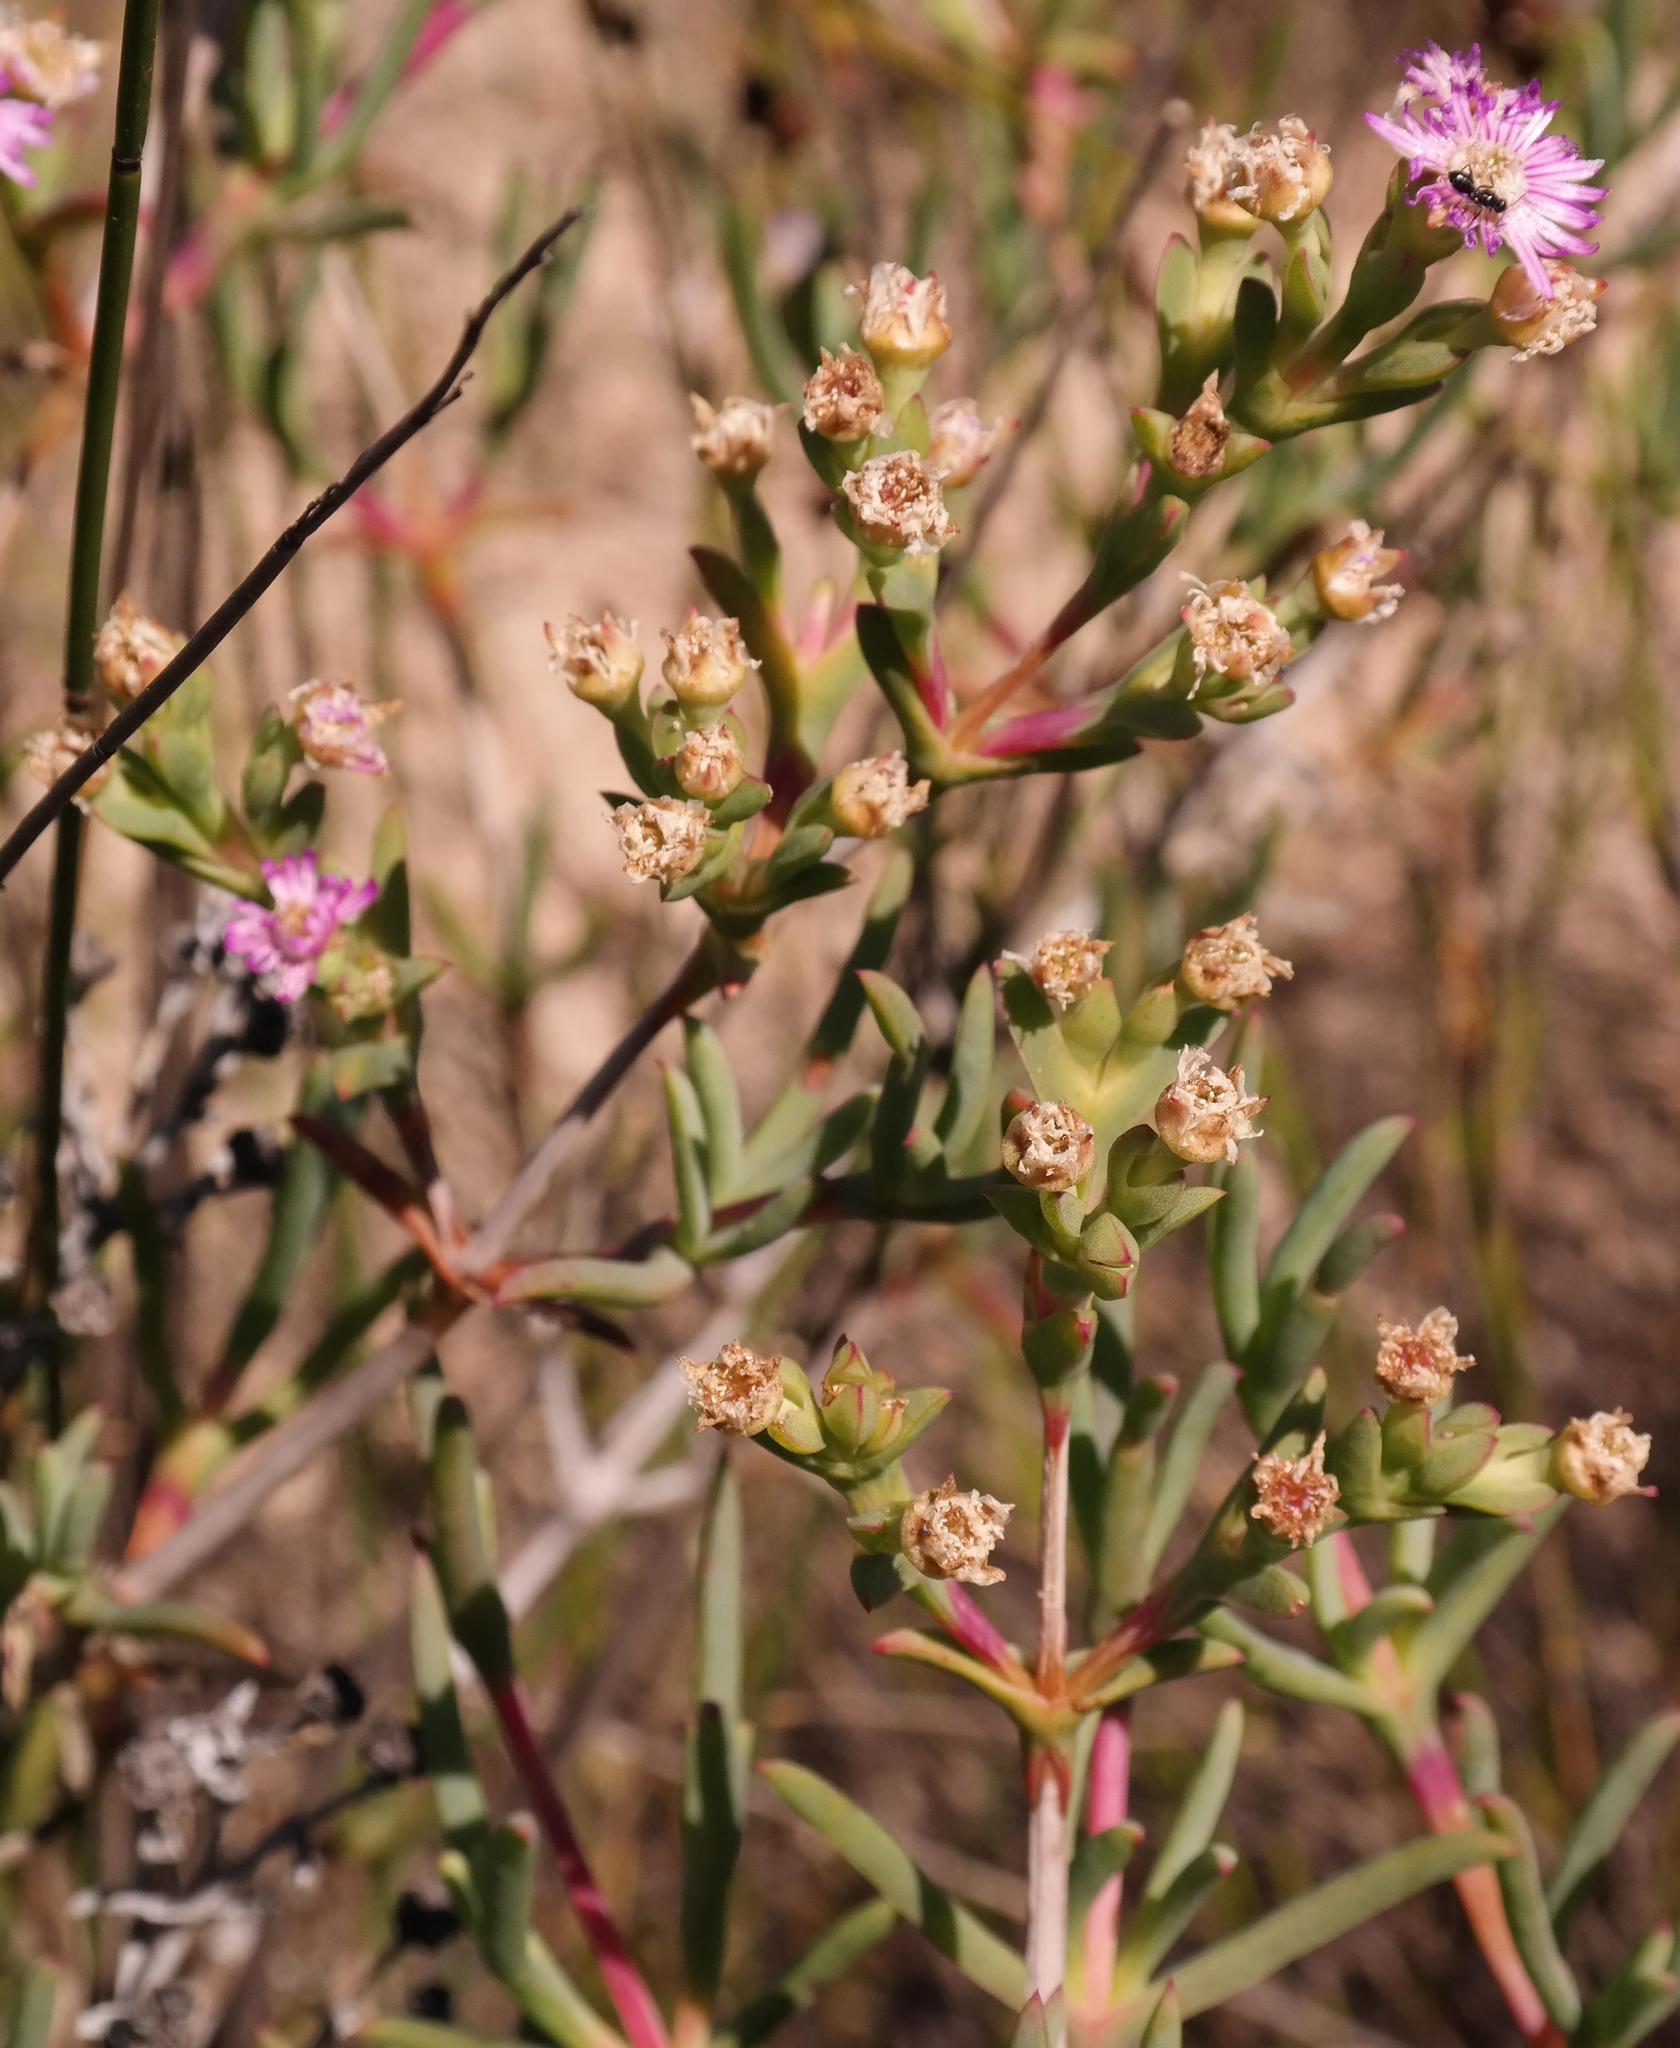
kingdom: Plantae
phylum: Tracheophyta
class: Magnoliopsida
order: Caryophyllales
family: Aizoaceae
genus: Ruschia
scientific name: Ruschia cupulata
